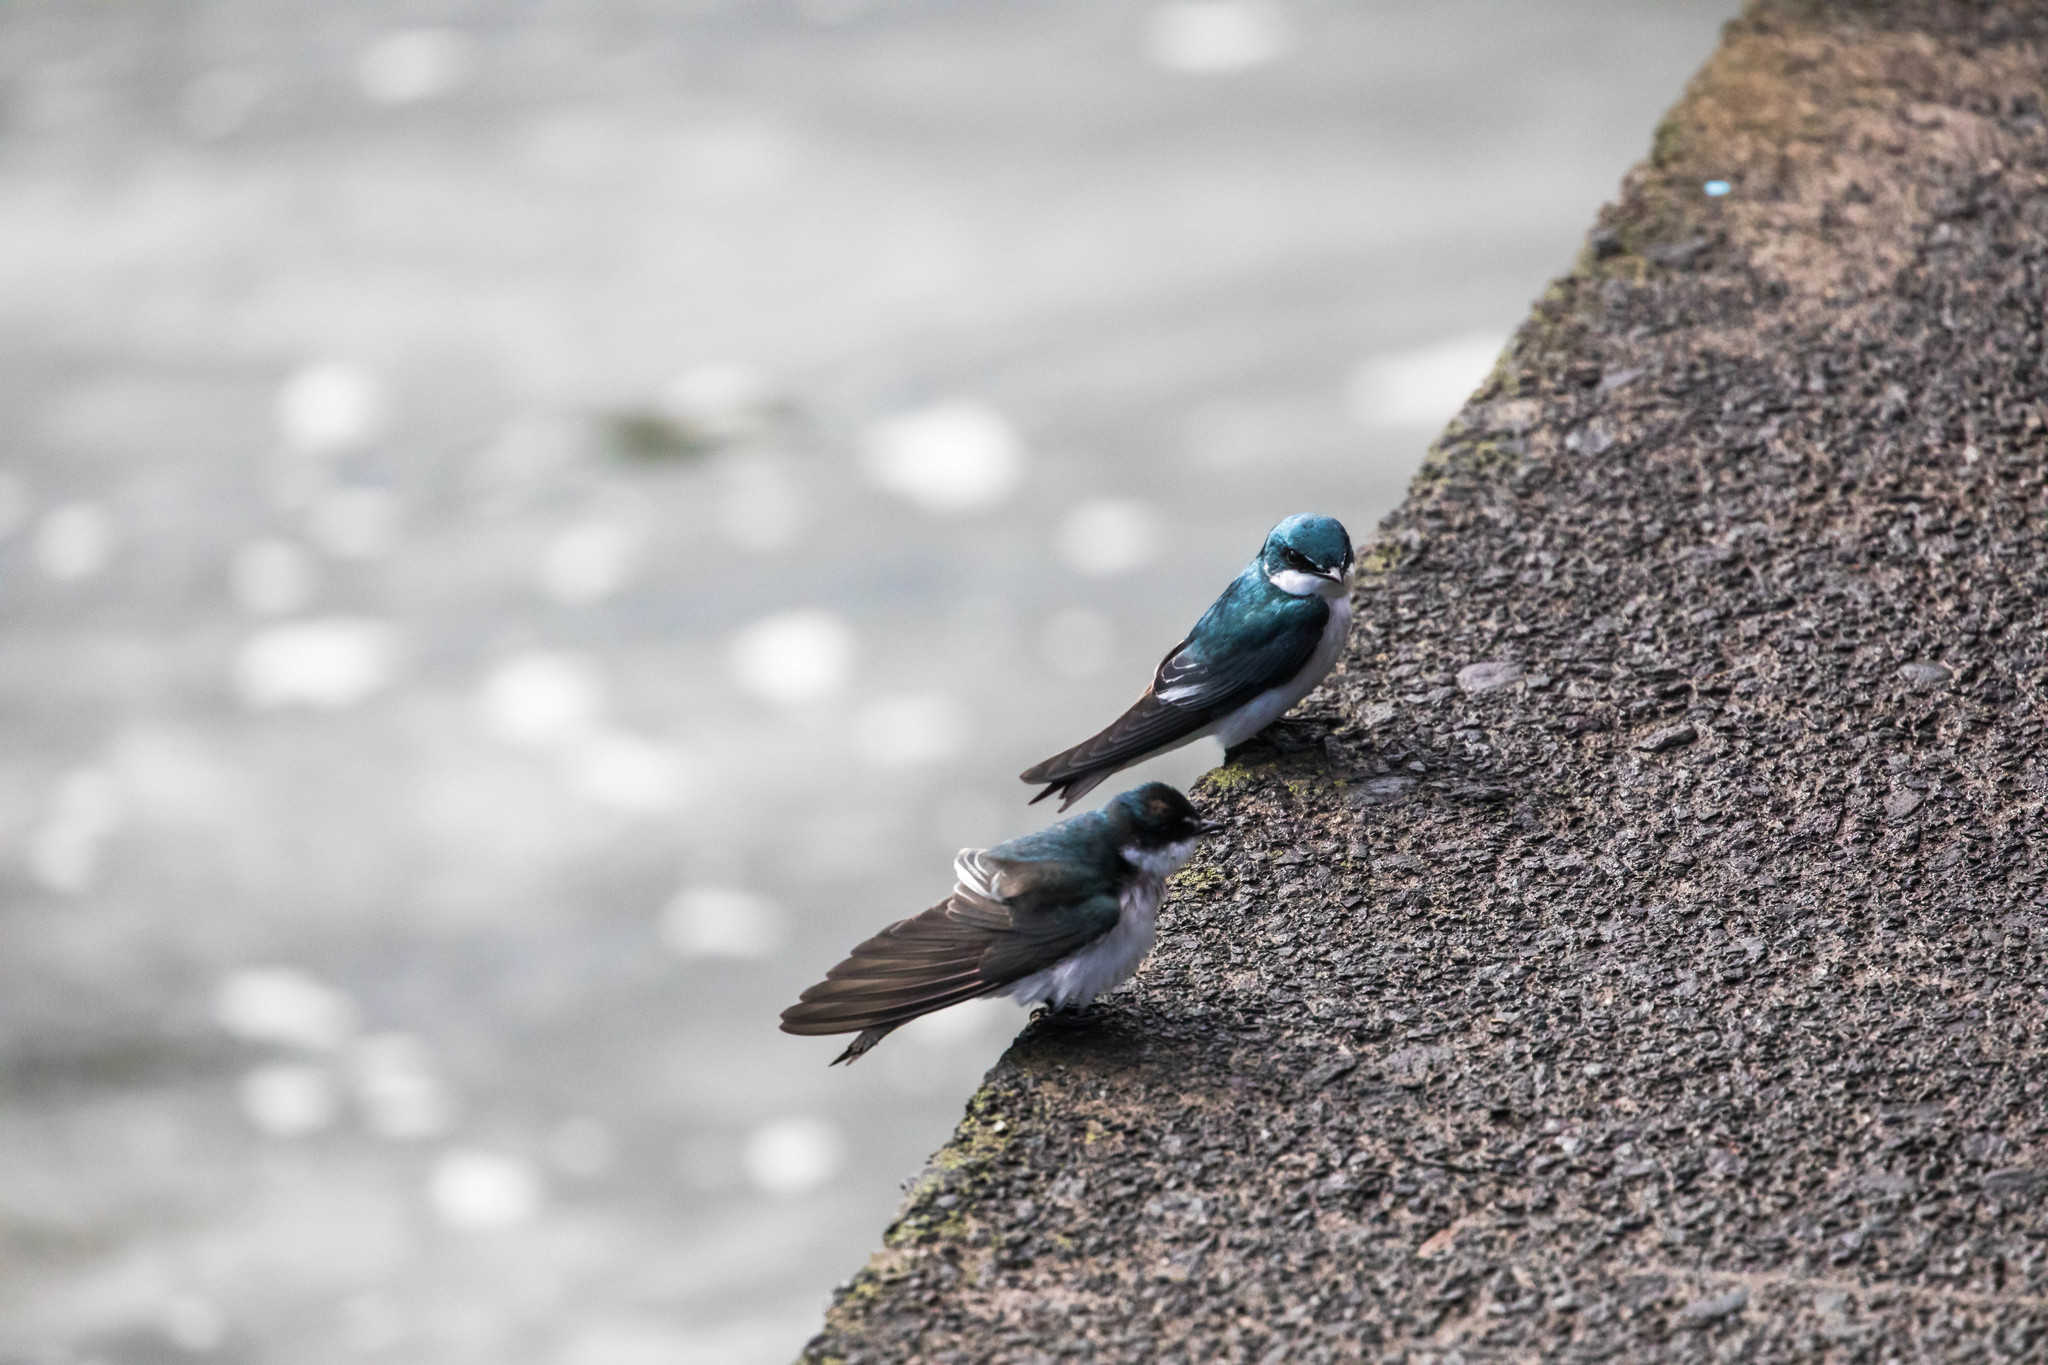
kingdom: Animalia
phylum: Chordata
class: Aves
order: Passeriformes
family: Hirundinidae
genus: Tachycineta
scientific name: Tachycineta albilinea
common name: Mangrove swallow
